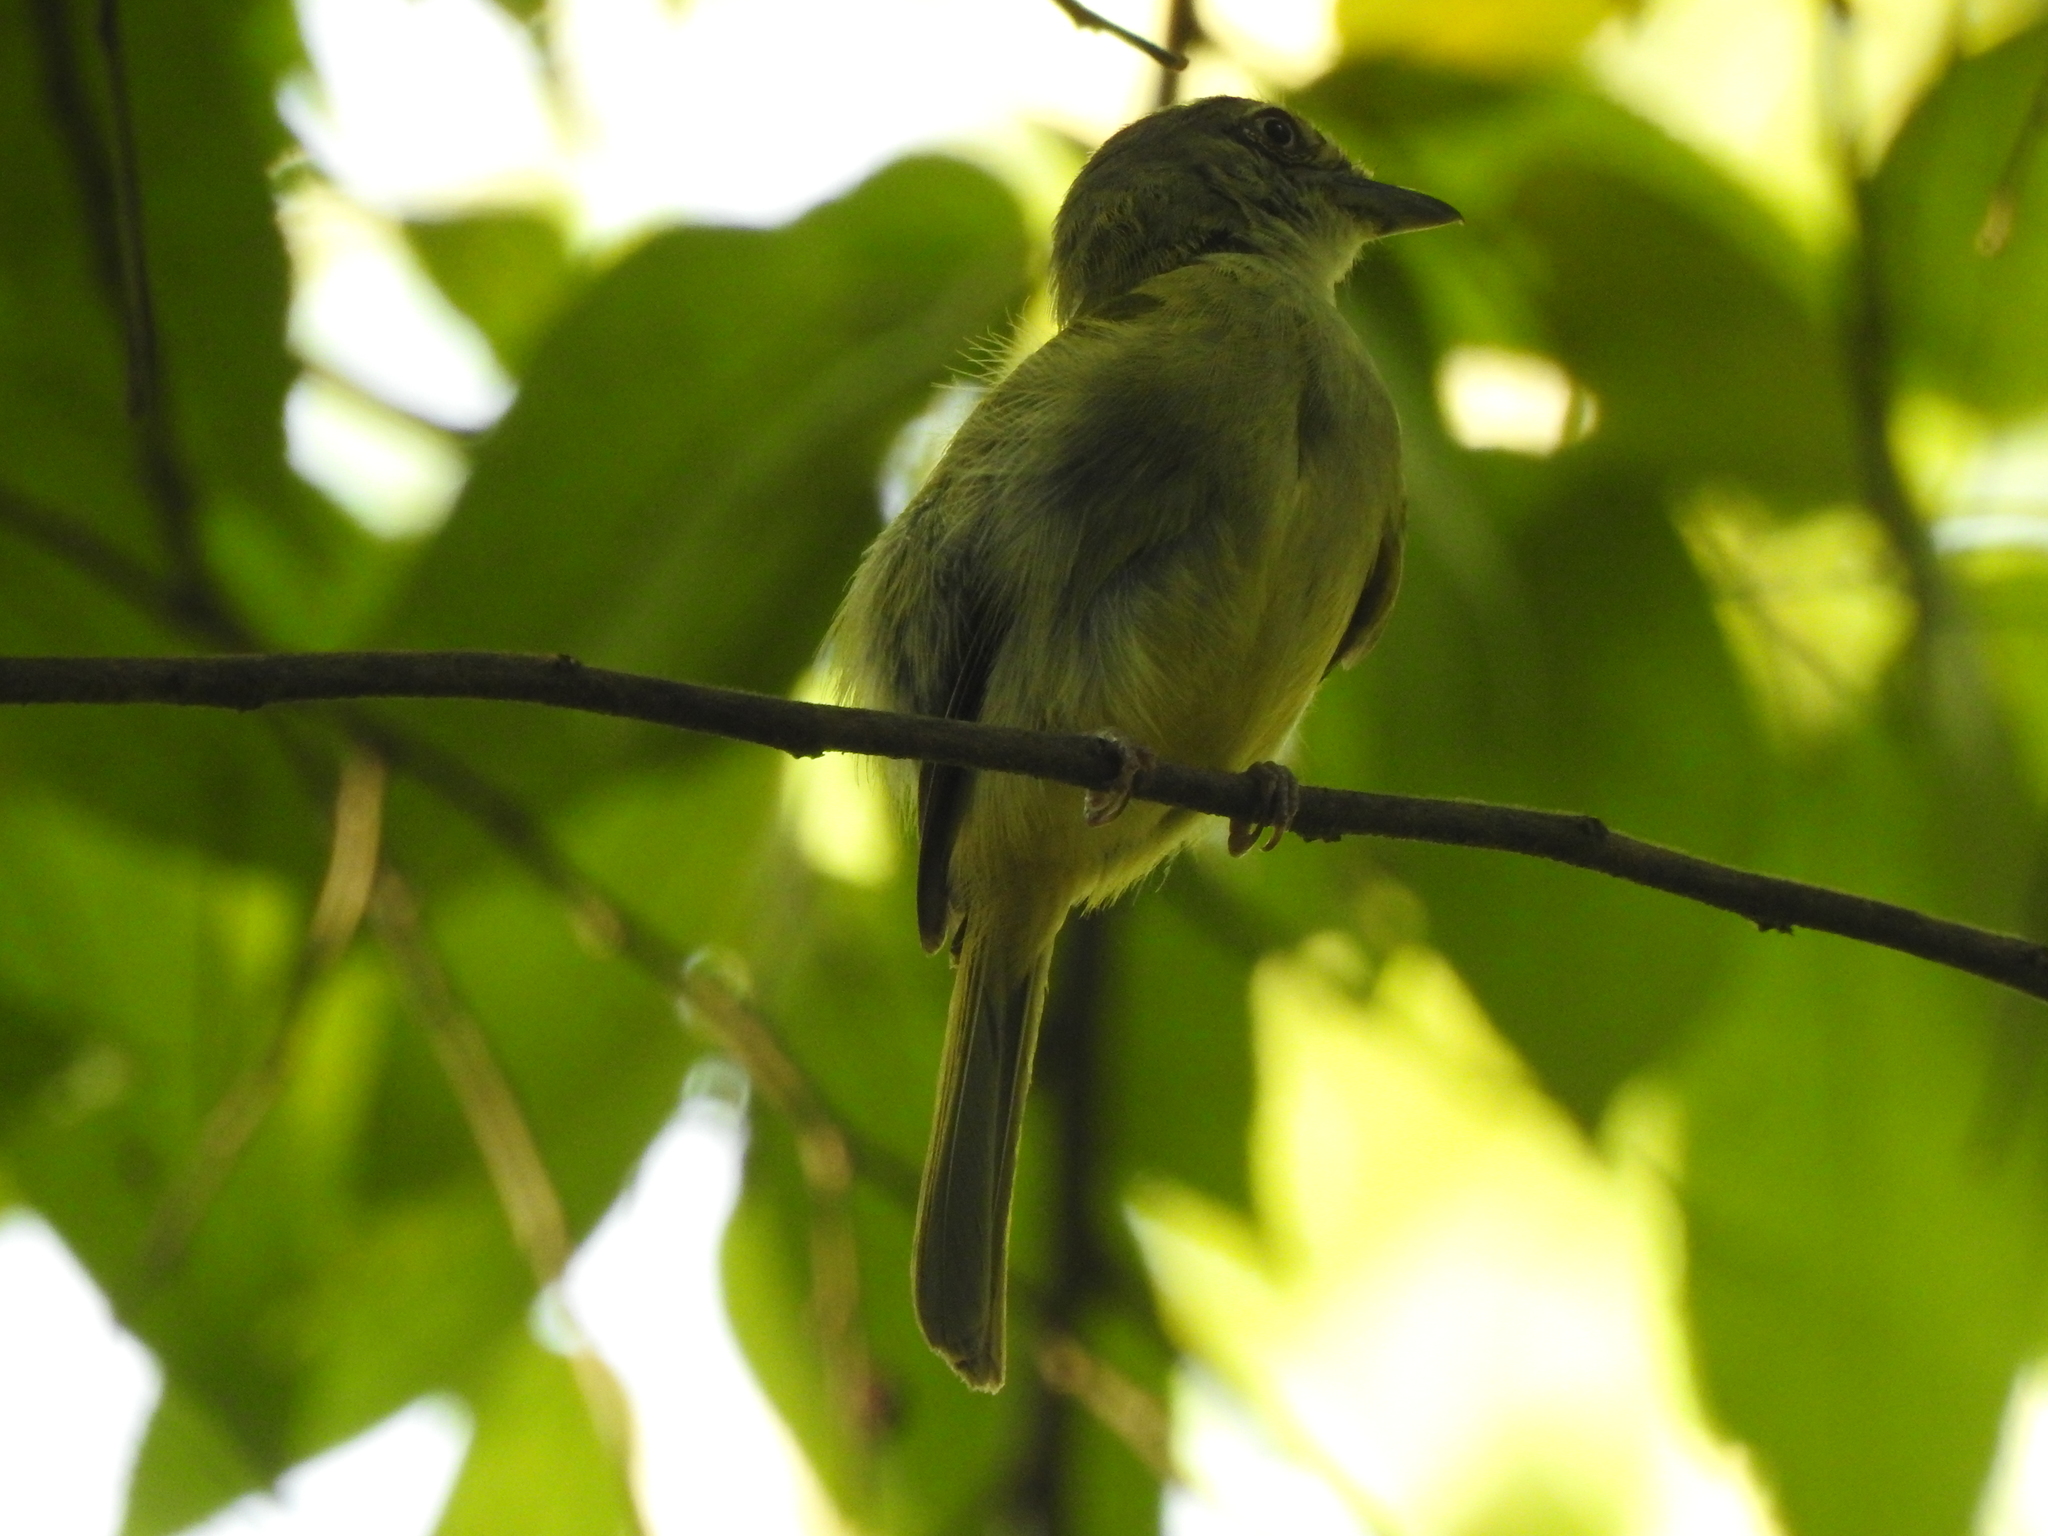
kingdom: Animalia
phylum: Chordata
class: Aves
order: Passeriformes
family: Tyrannidae
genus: Tolmomyias
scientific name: Tolmomyias sulphurescens
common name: Yellow-olive flycatcher
